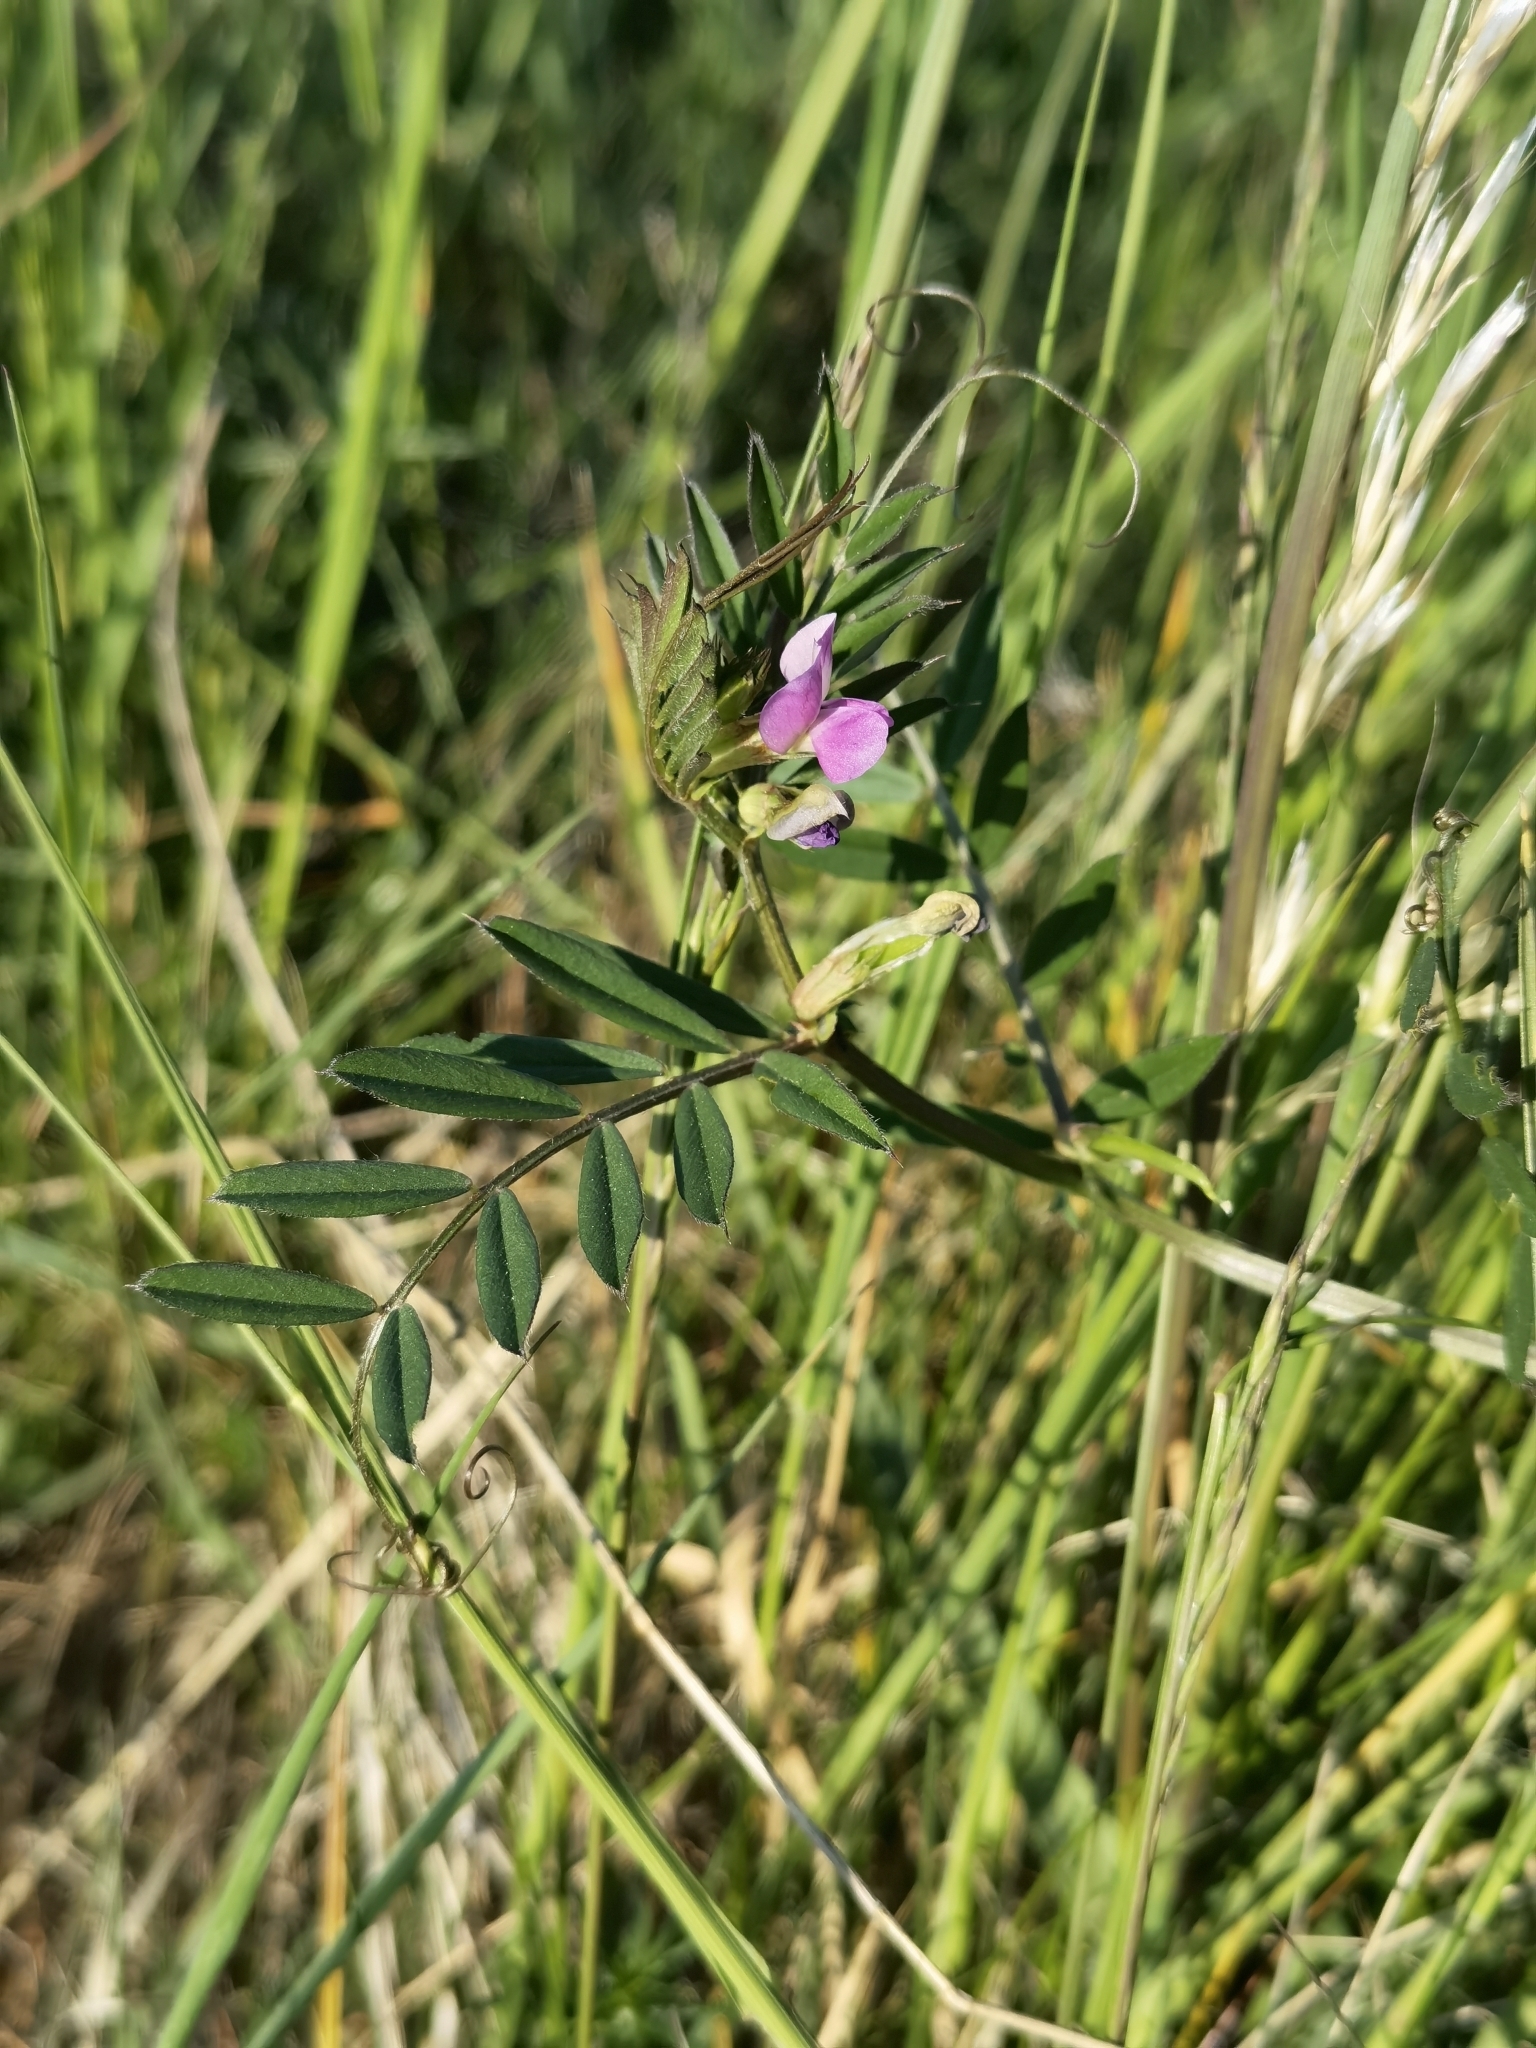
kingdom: Plantae
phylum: Tracheophyta
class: Magnoliopsida
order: Fabales
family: Fabaceae
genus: Vicia
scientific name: Vicia sativa
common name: Garden vetch
